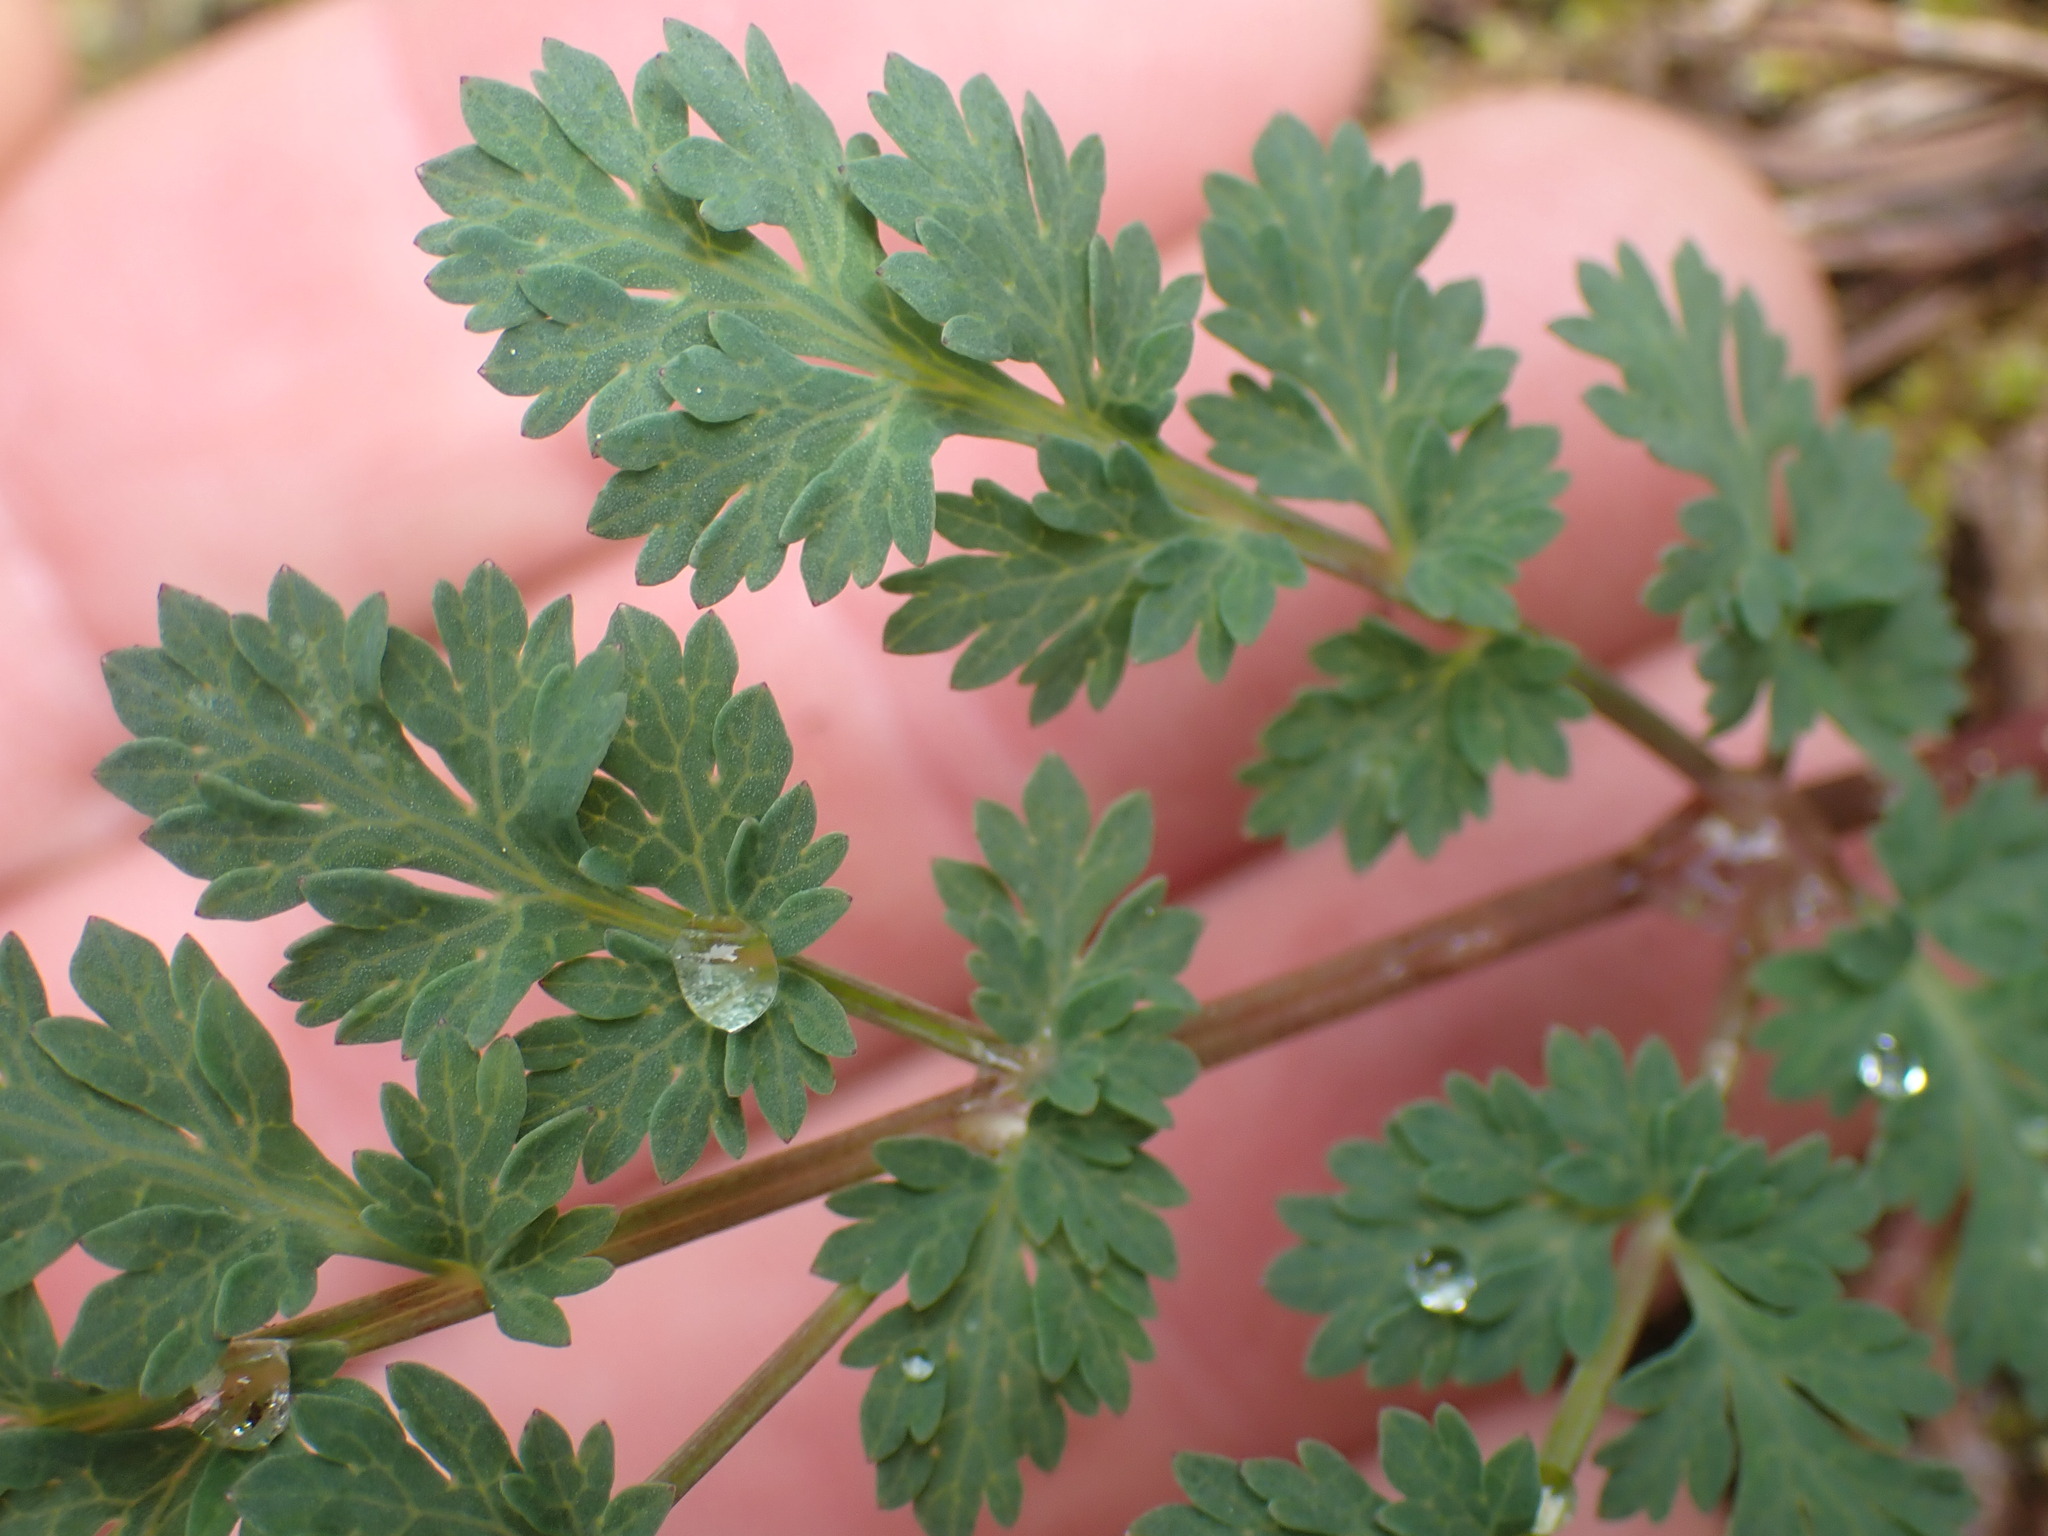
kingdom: Plantae
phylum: Tracheophyta
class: Magnoliopsida
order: Apiales
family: Apiaceae
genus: Lomatium
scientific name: Lomatium martindalei
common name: Cascade desert-parsley
